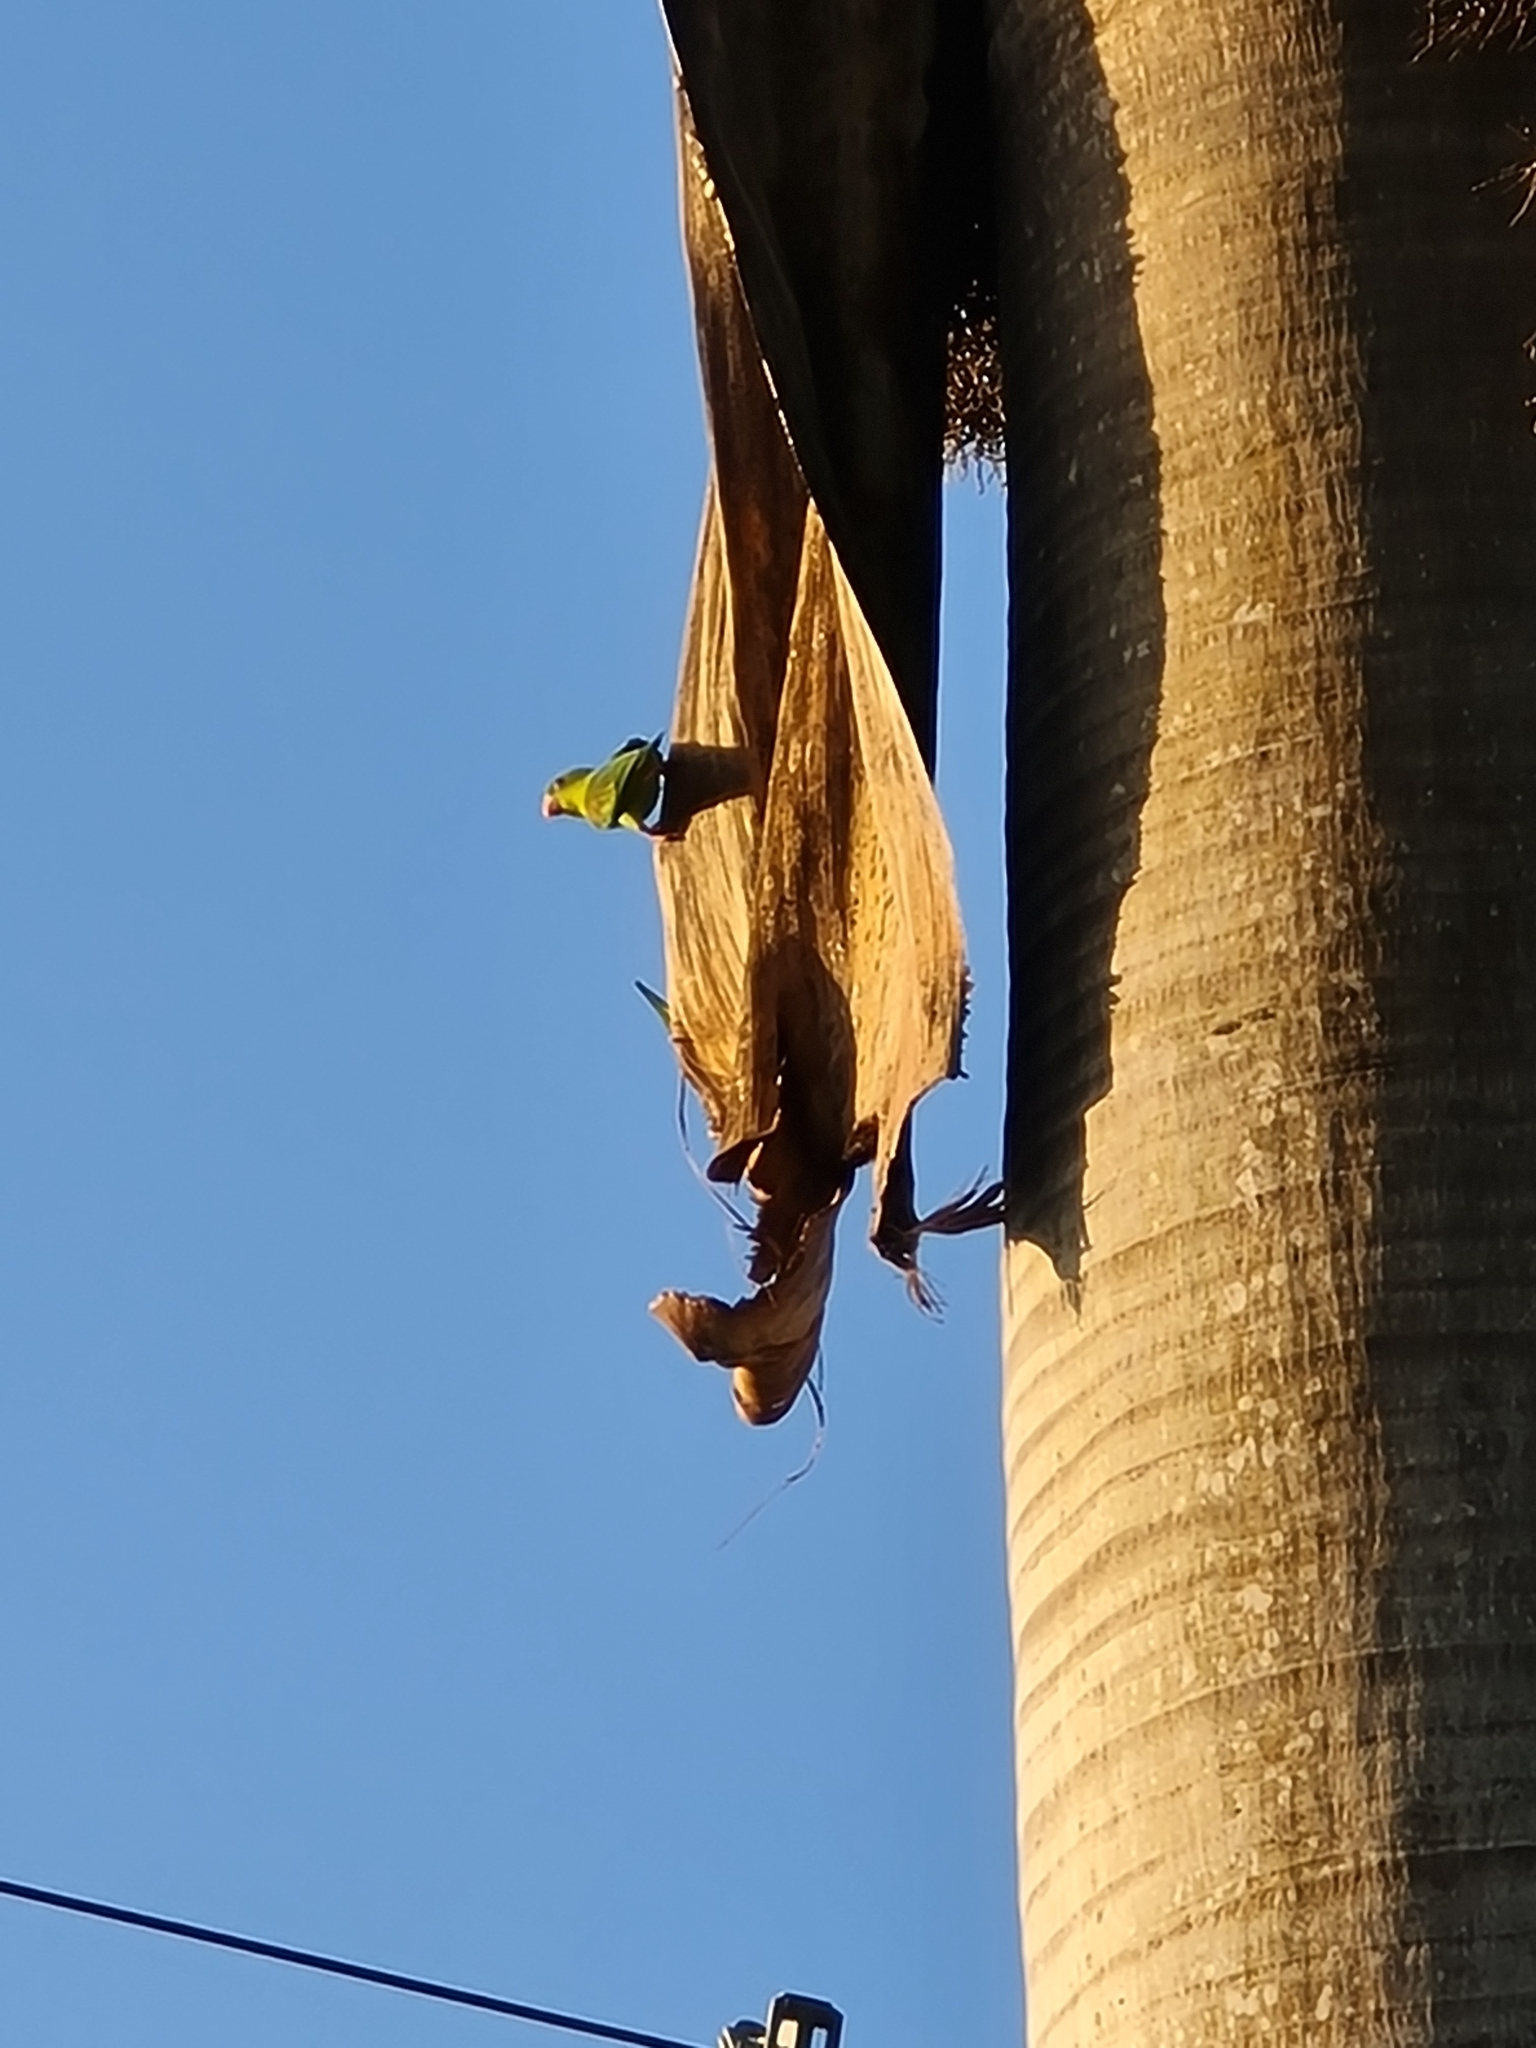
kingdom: Animalia
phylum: Chordata
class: Aves
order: Psittaciformes
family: Psittacidae
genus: Brotogeris
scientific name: Brotogeris jugularis
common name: Orange-chinned parakeet
